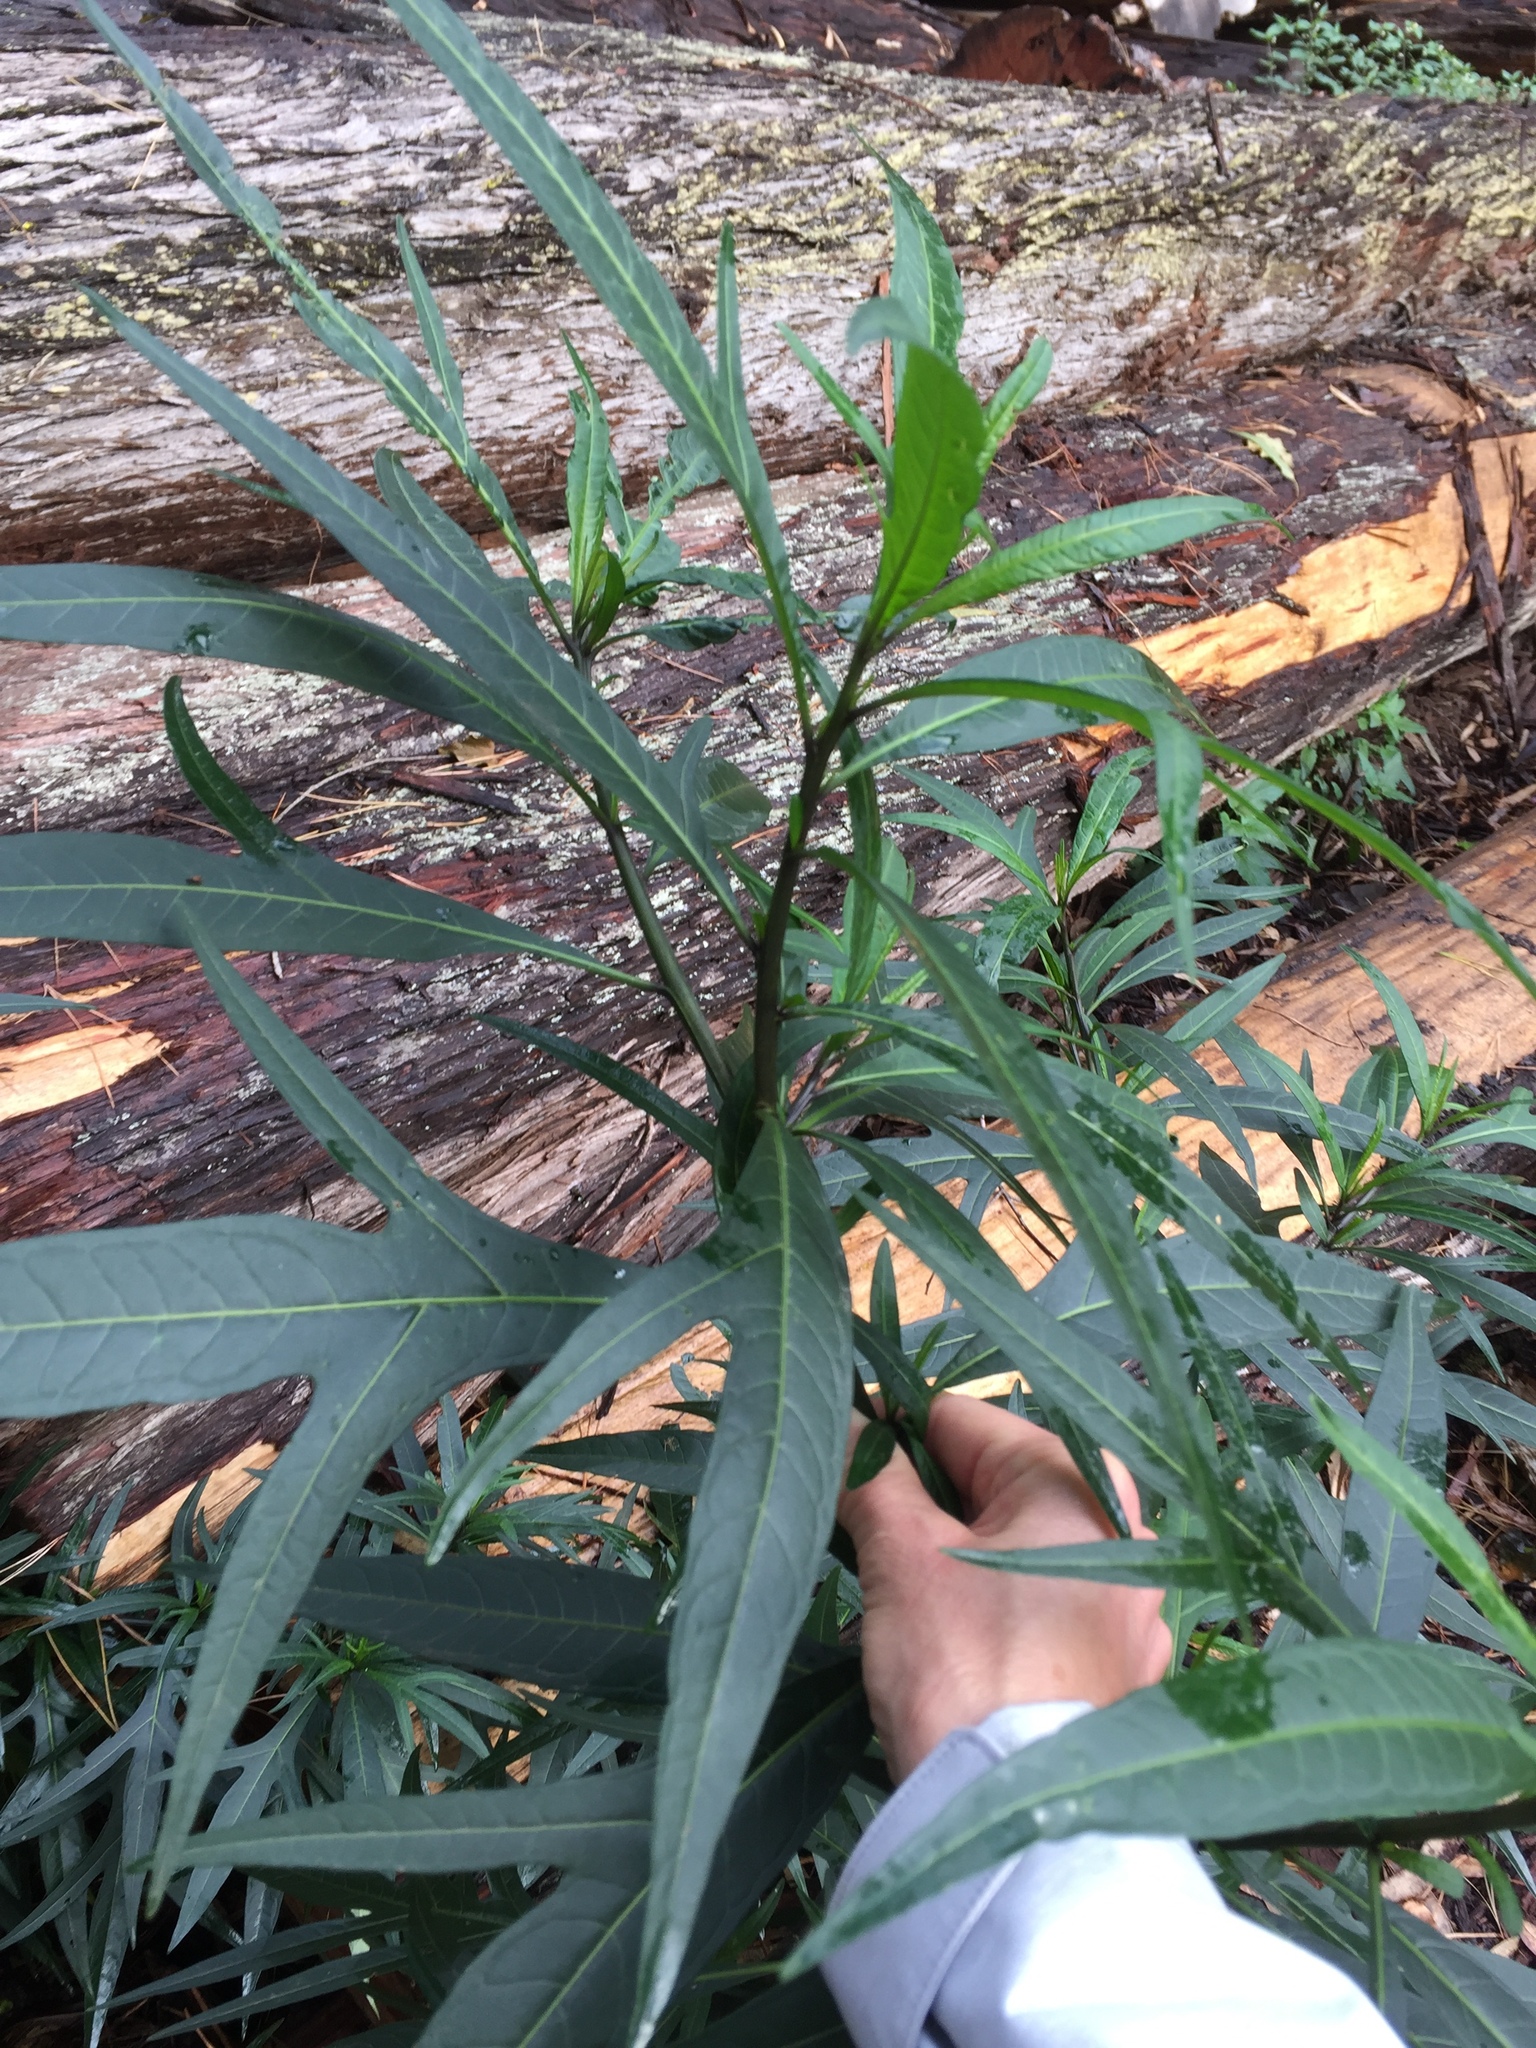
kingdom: Plantae
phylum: Tracheophyta
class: Magnoliopsida
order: Solanales
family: Solanaceae
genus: Solanum
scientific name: Solanum laciniatum
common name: Kangaroo-apple
